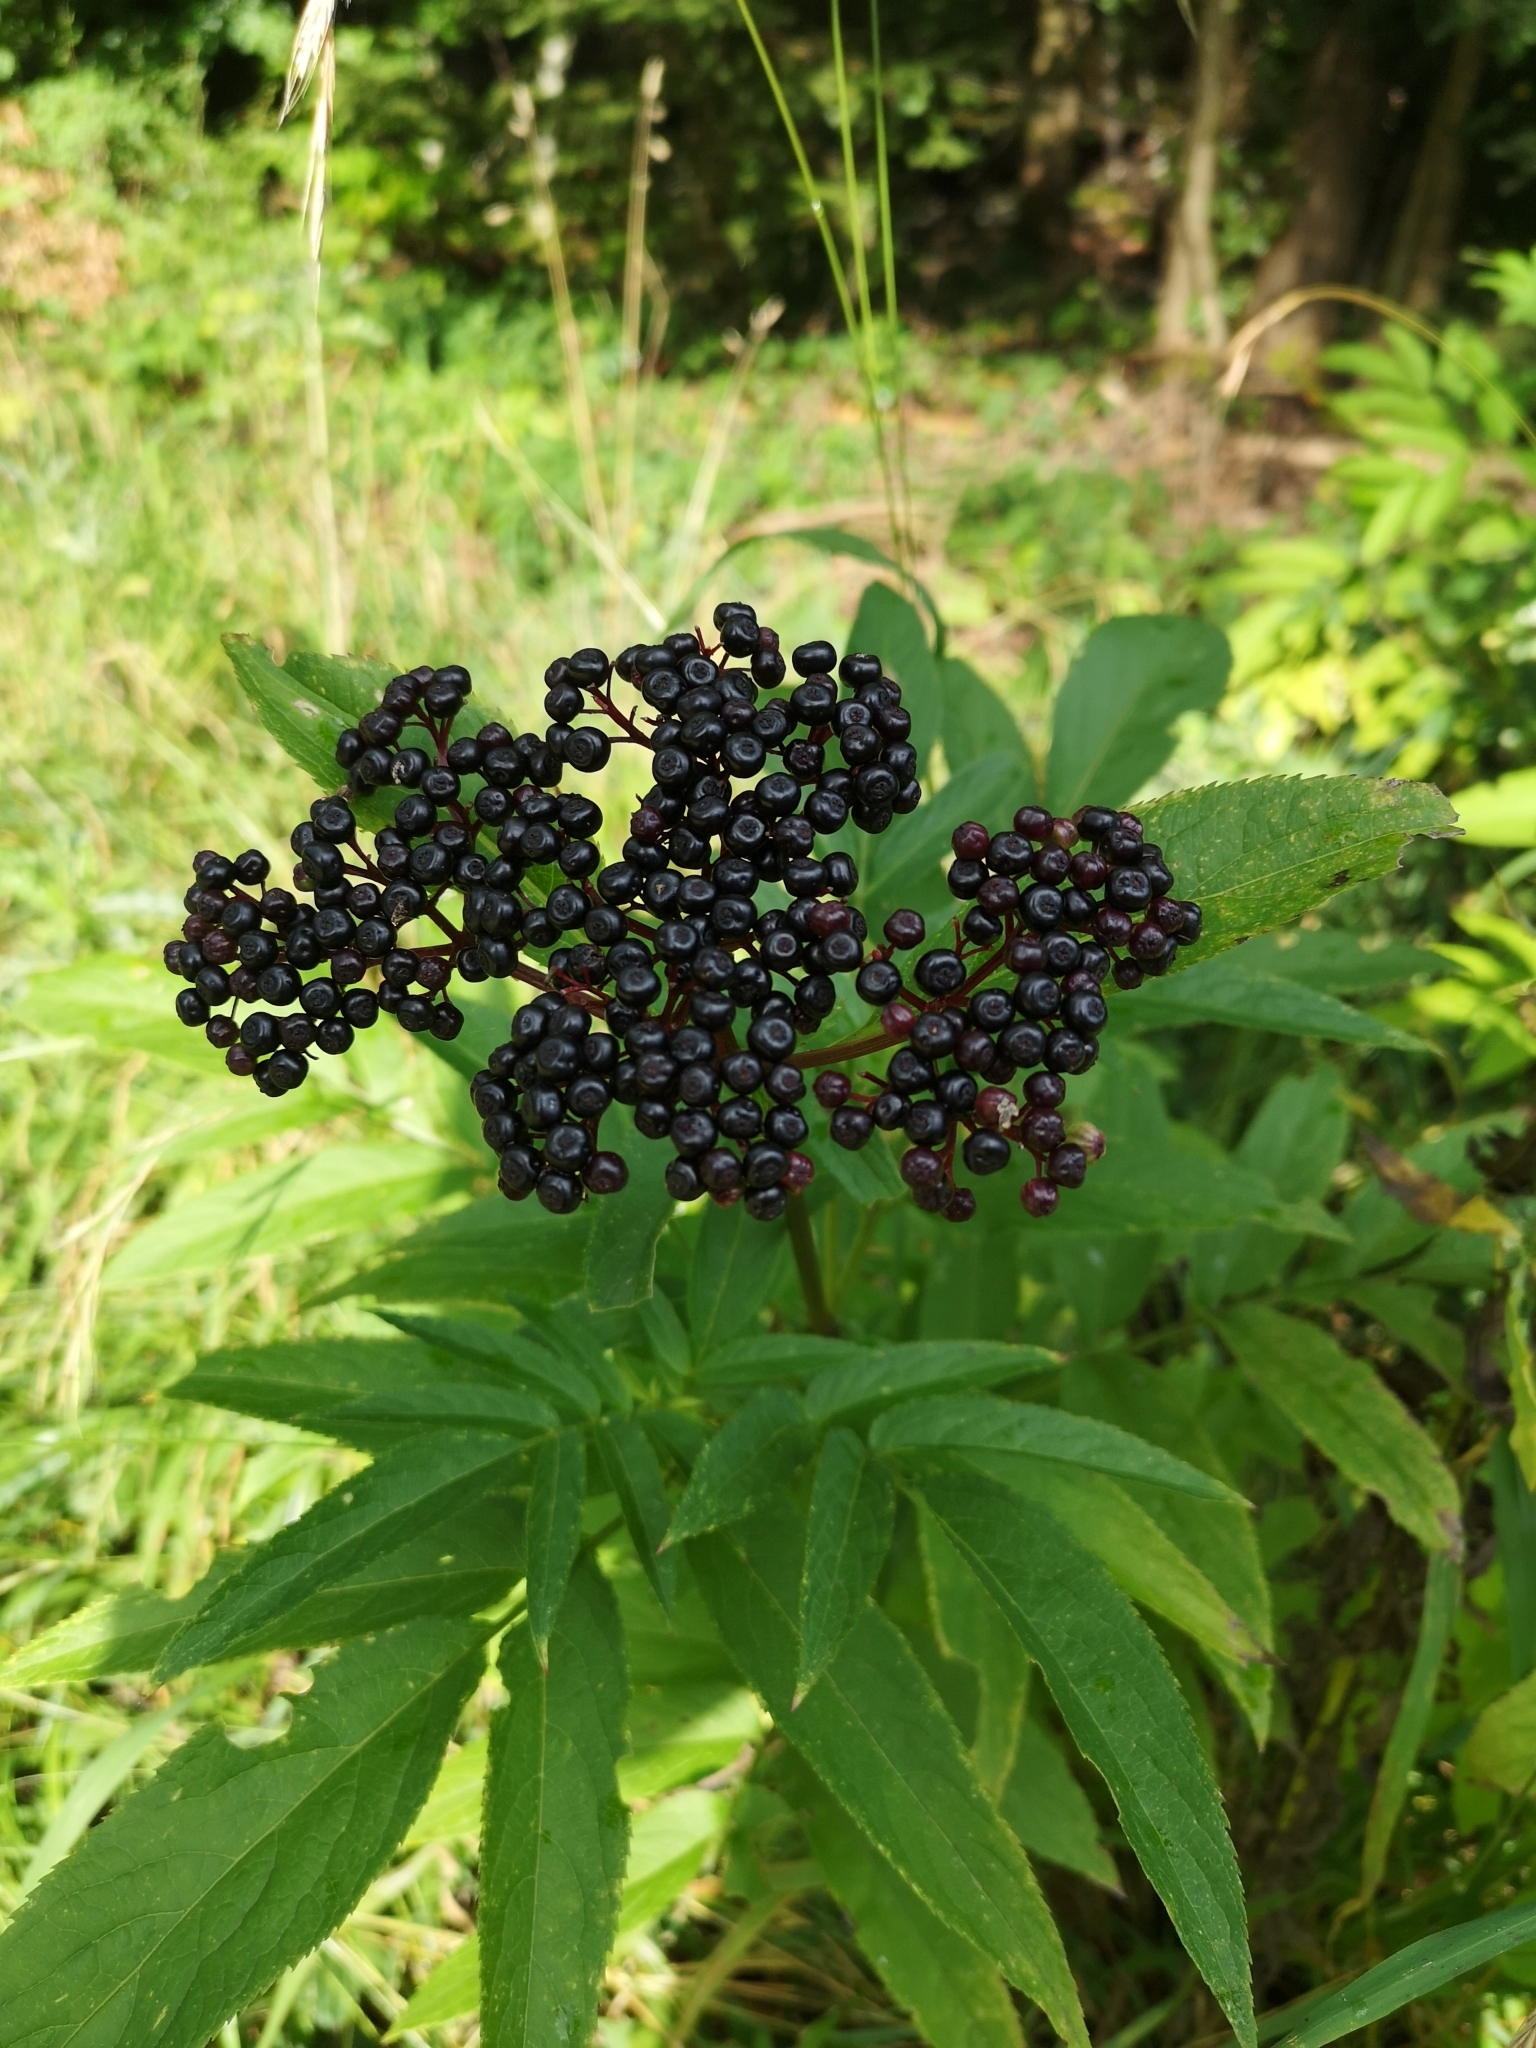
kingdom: Plantae
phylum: Tracheophyta
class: Magnoliopsida
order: Dipsacales
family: Viburnaceae
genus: Sambucus
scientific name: Sambucus ebulus
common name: Dwarf elder
